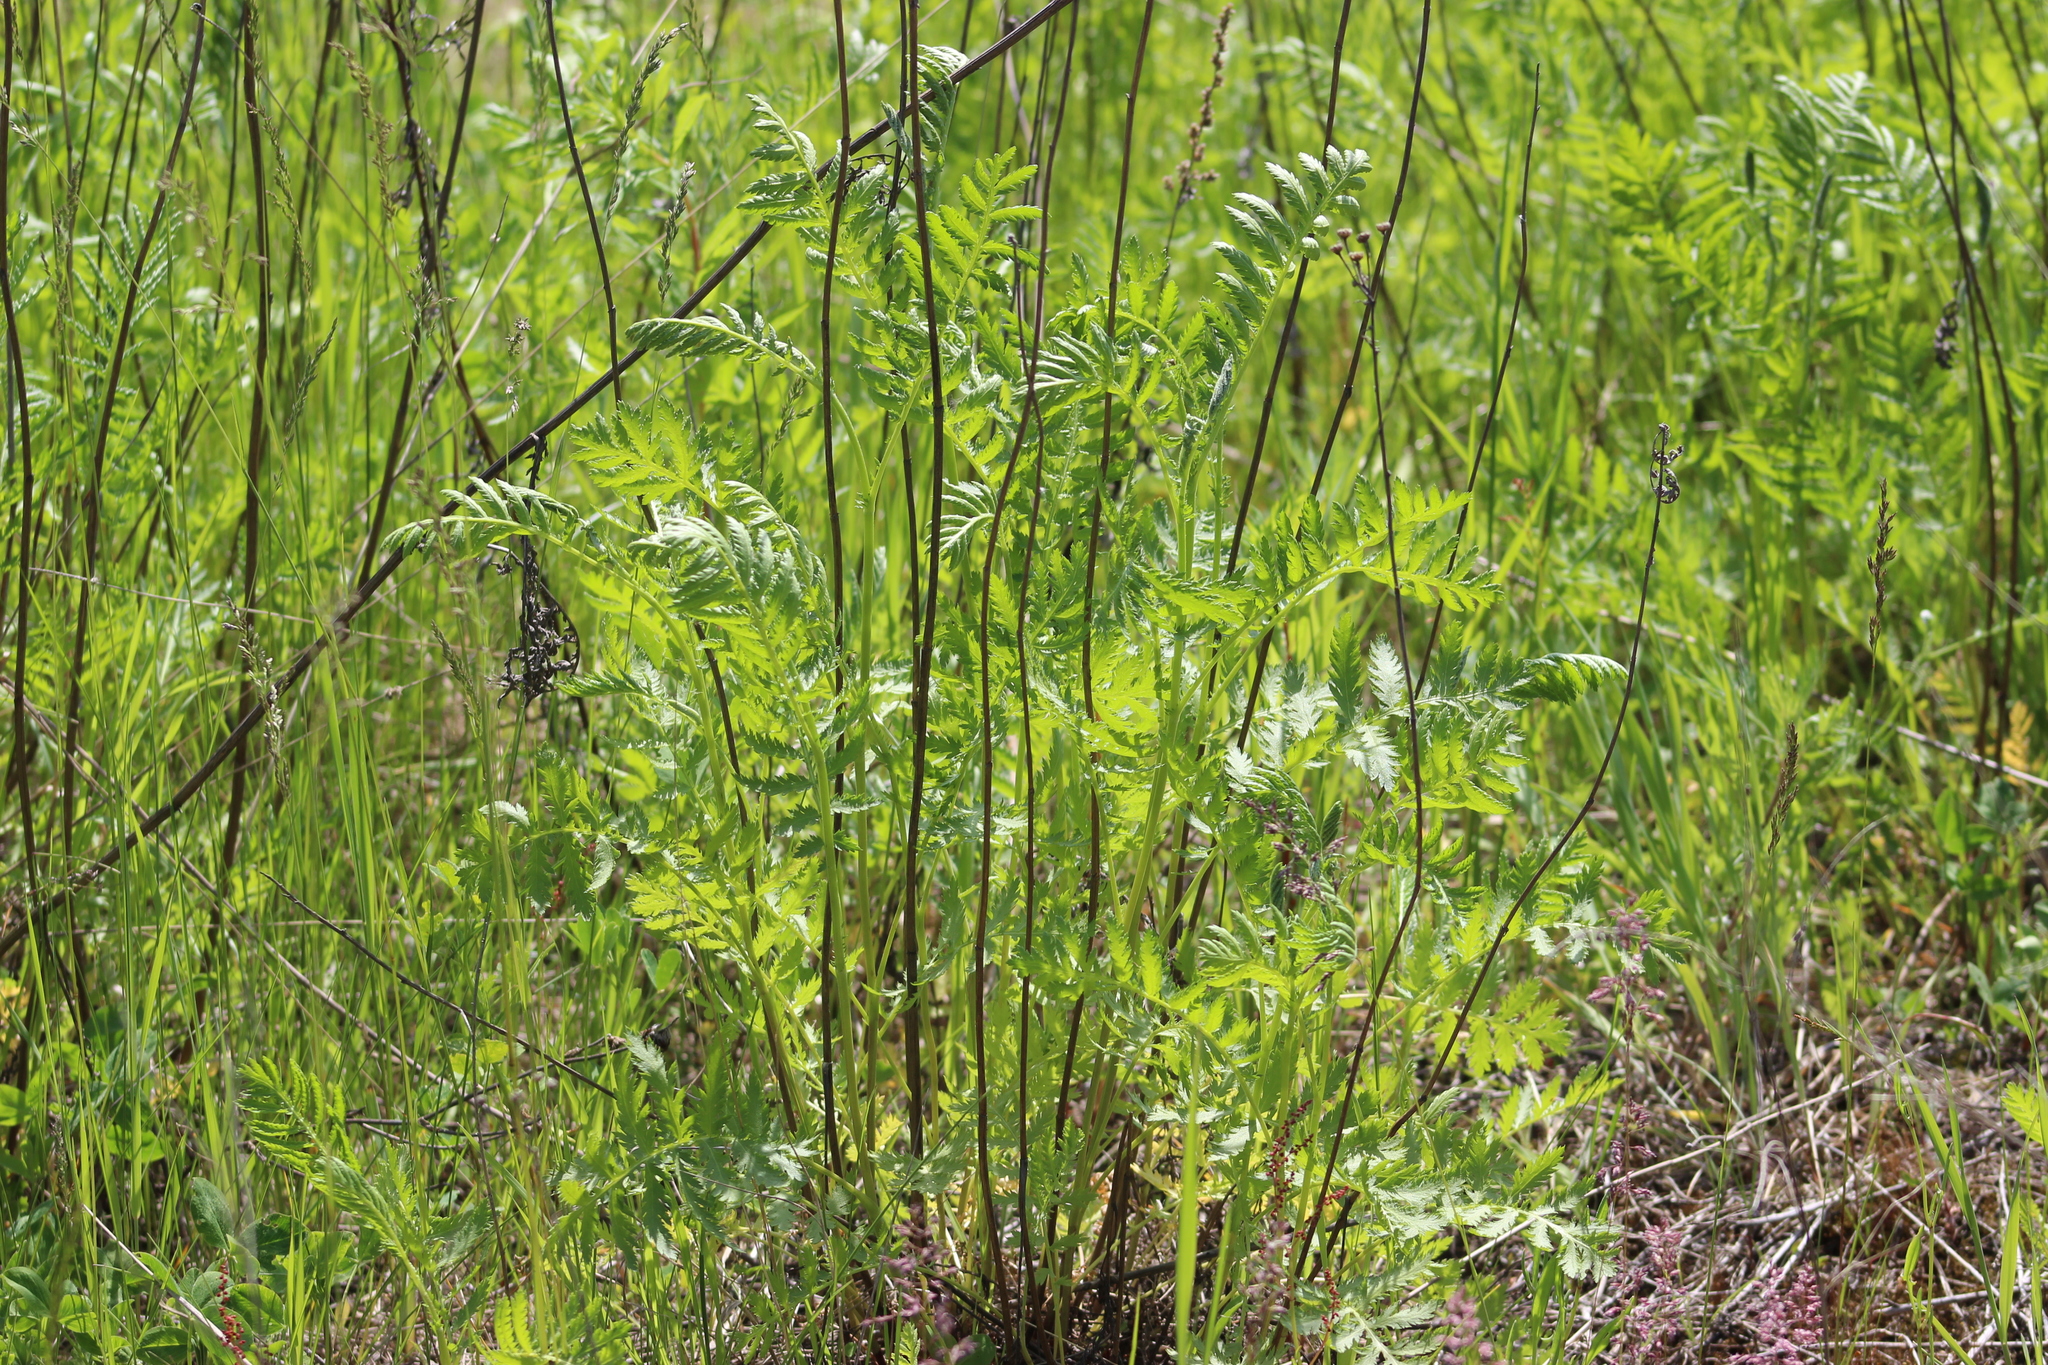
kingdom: Plantae
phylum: Tracheophyta
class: Magnoliopsida
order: Asterales
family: Asteraceae
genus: Tanacetum
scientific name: Tanacetum vulgare
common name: Common tansy
